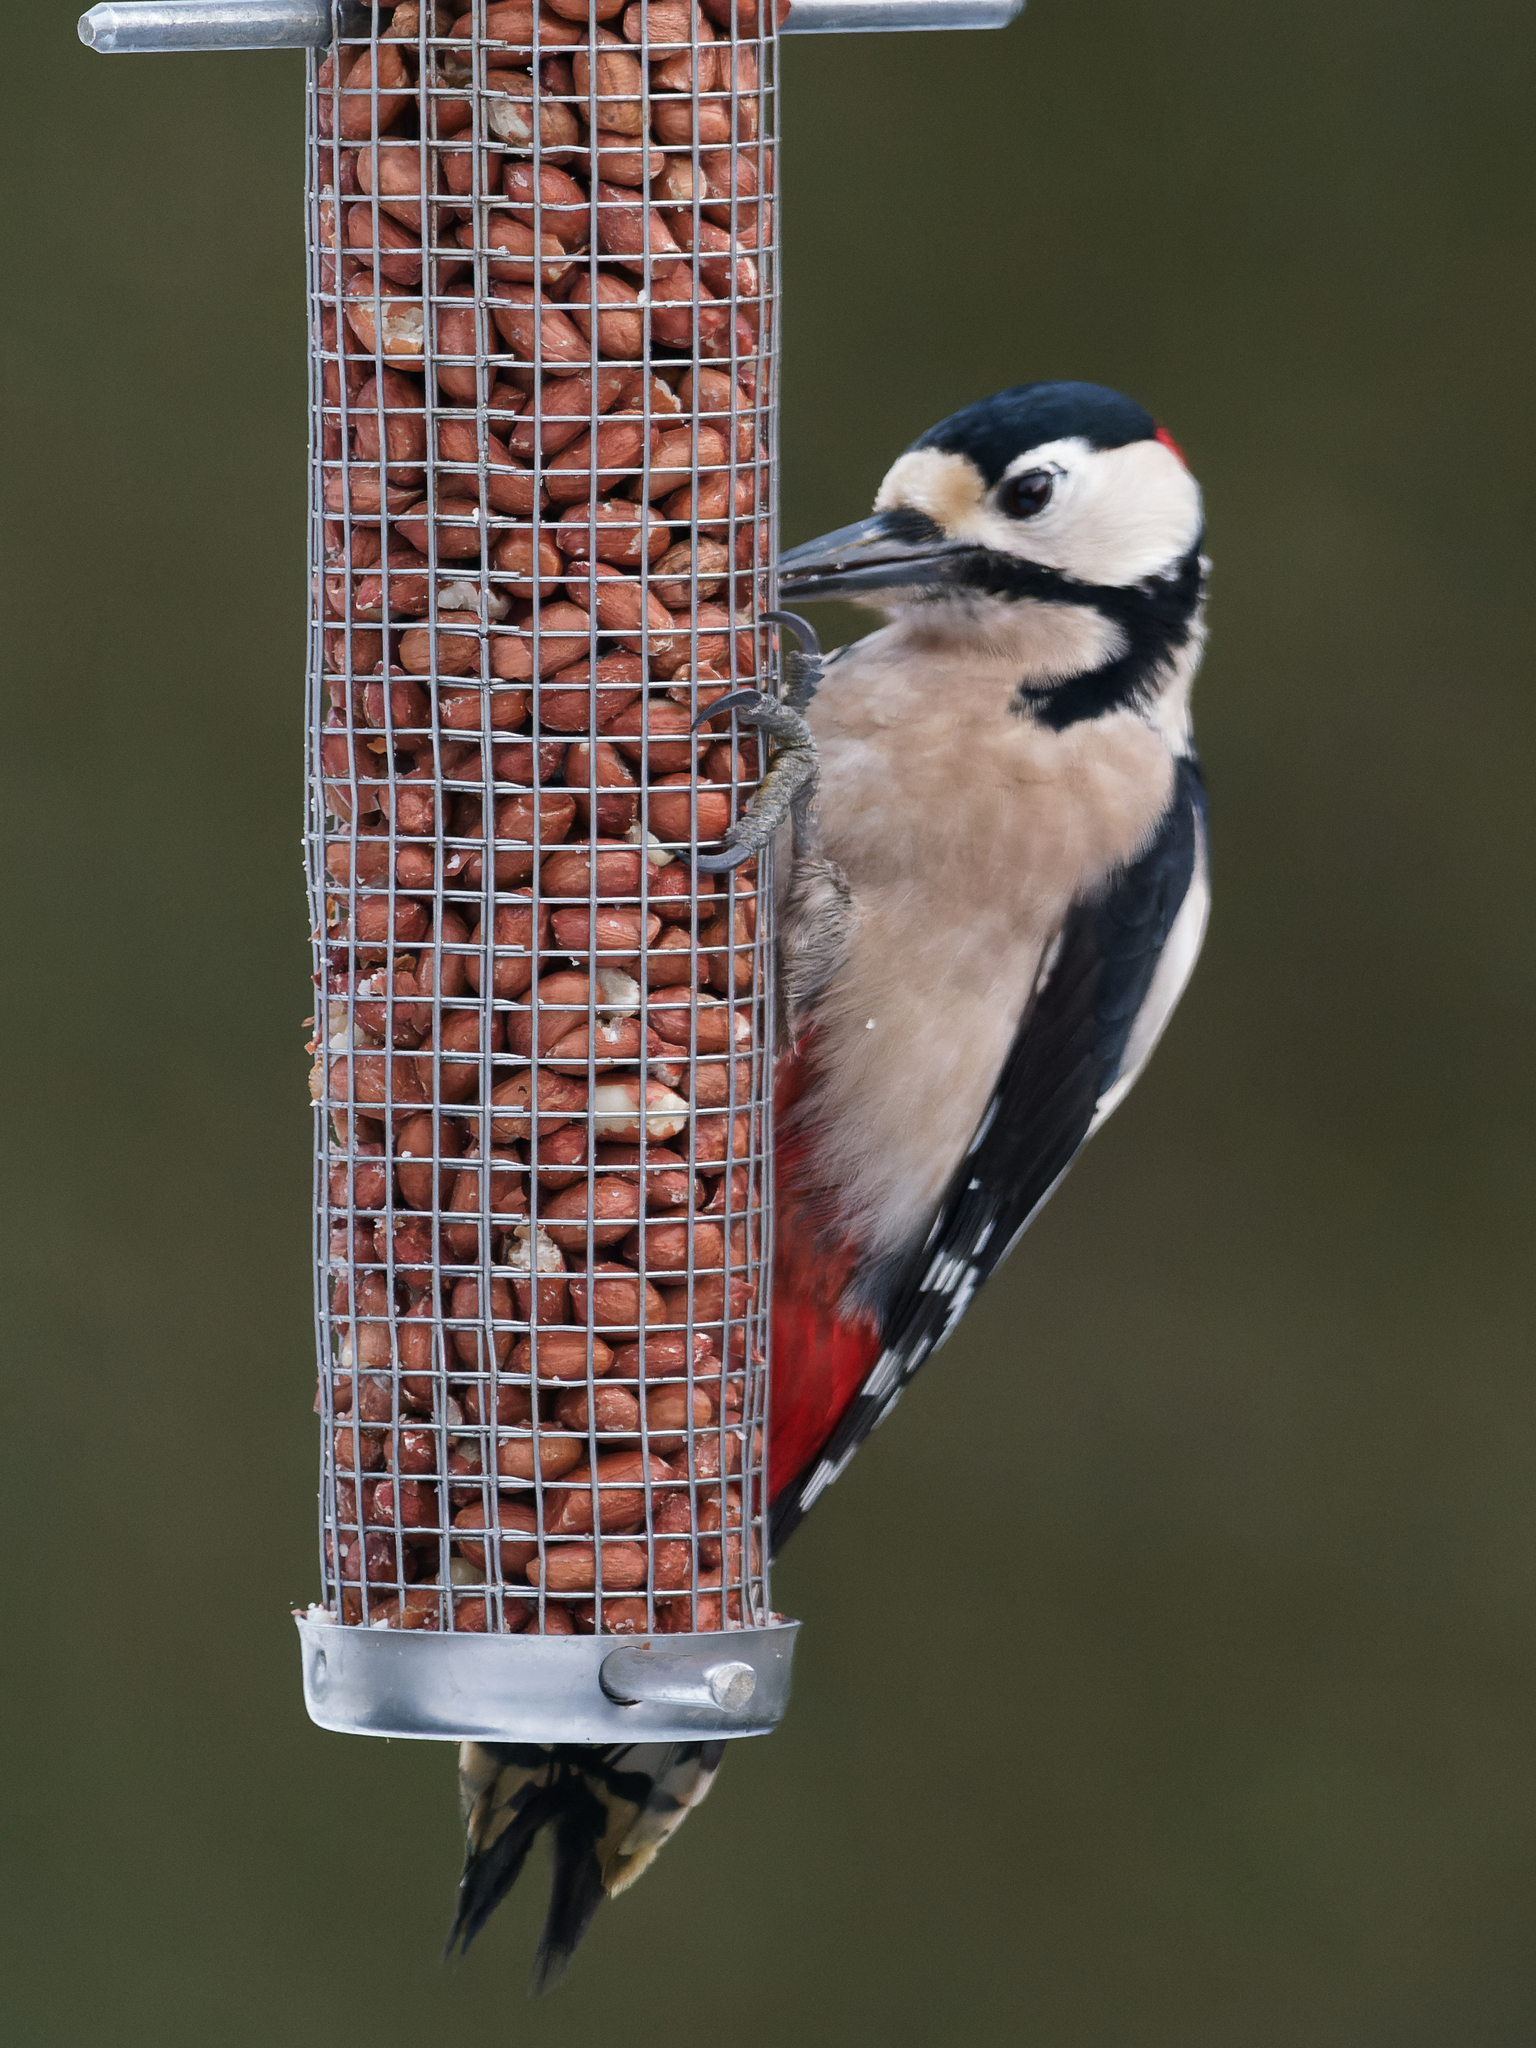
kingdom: Animalia
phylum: Chordata
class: Aves
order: Piciformes
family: Picidae
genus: Dendrocopos
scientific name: Dendrocopos major
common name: Great spotted woodpecker
